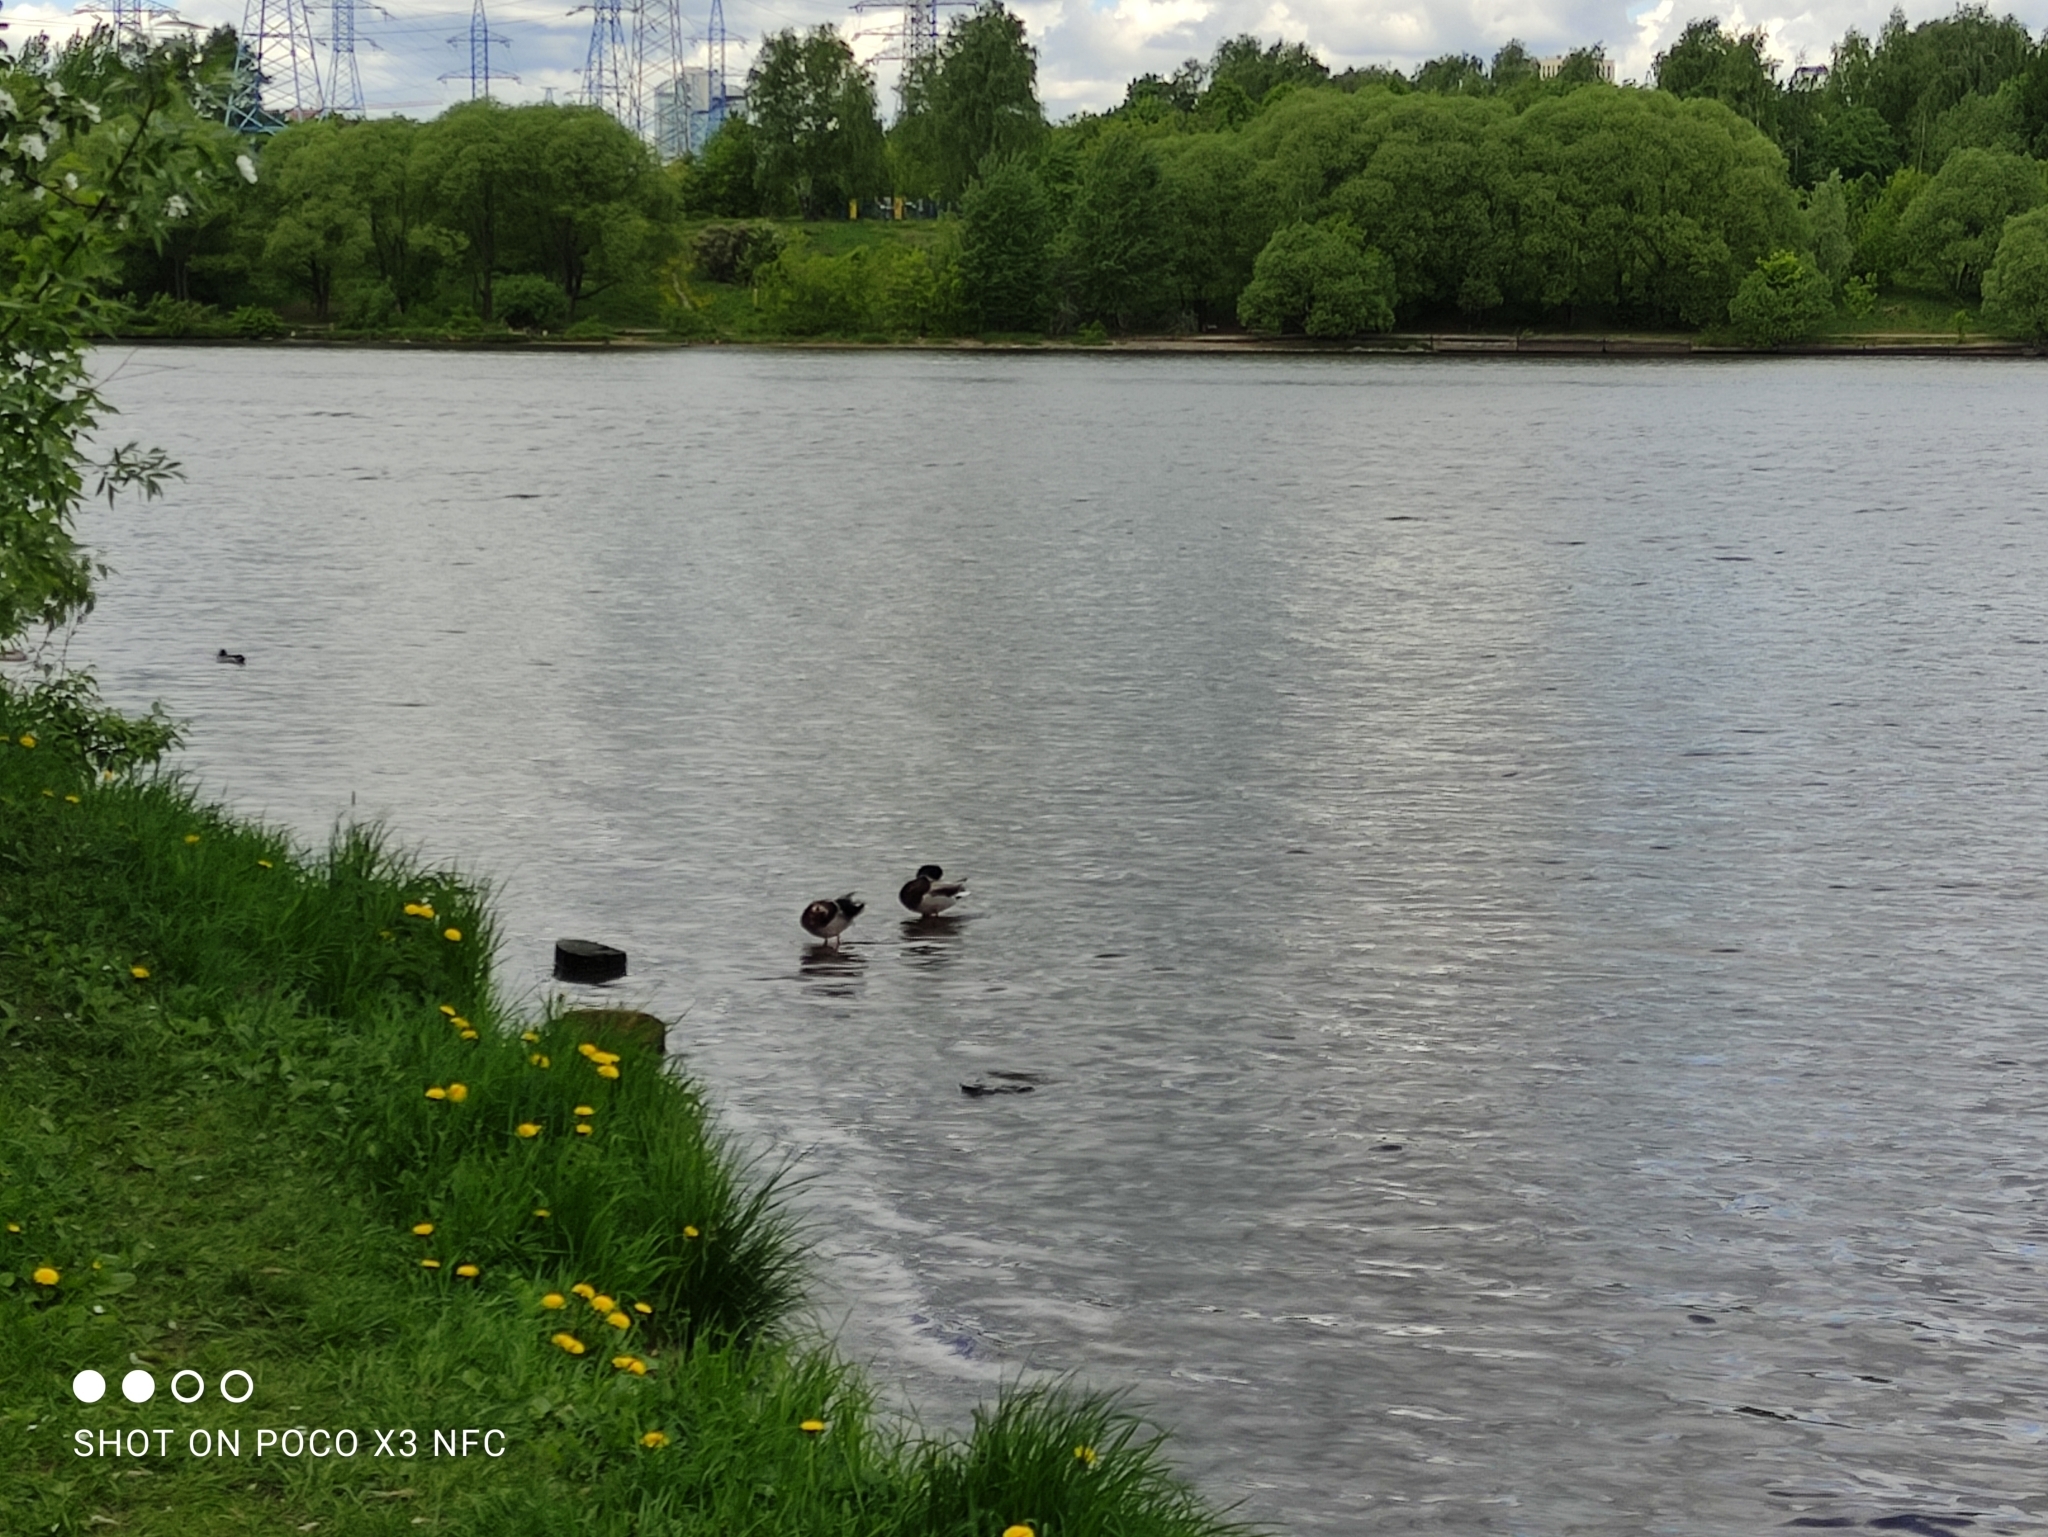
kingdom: Animalia
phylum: Chordata
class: Aves
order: Anseriformes
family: Anatidae
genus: Anas
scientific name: Anas platyrhynchos
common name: Mallard
